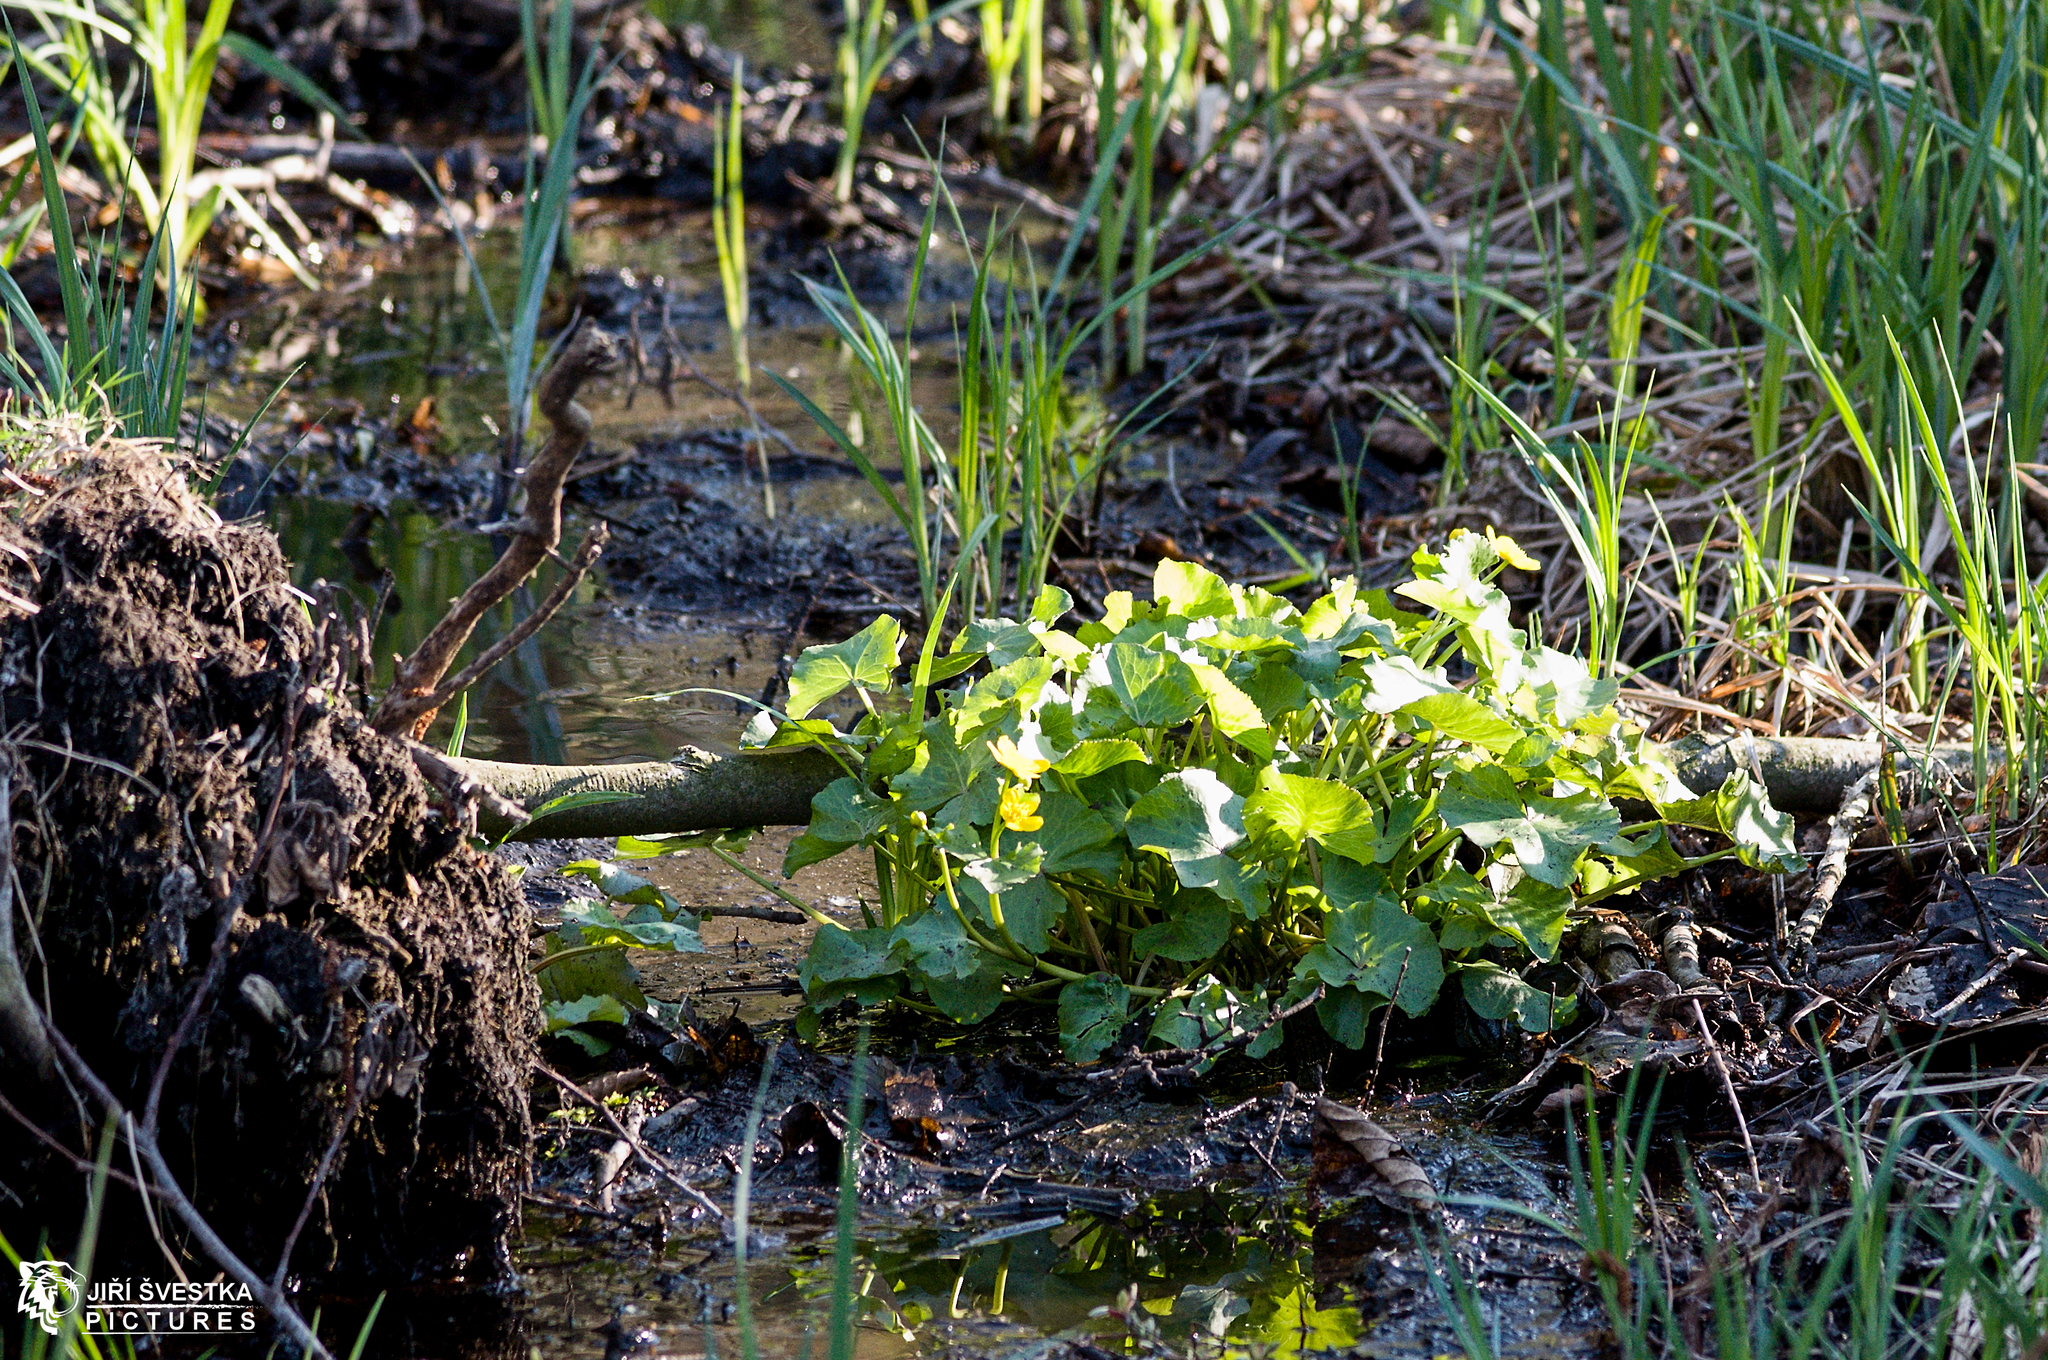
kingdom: Plantae
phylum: Tracheophyta
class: Magnoliopsida
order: Ranunculales
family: Ranunculaceae
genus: Caltha
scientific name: Caltha palustris
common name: Marsh marigold
